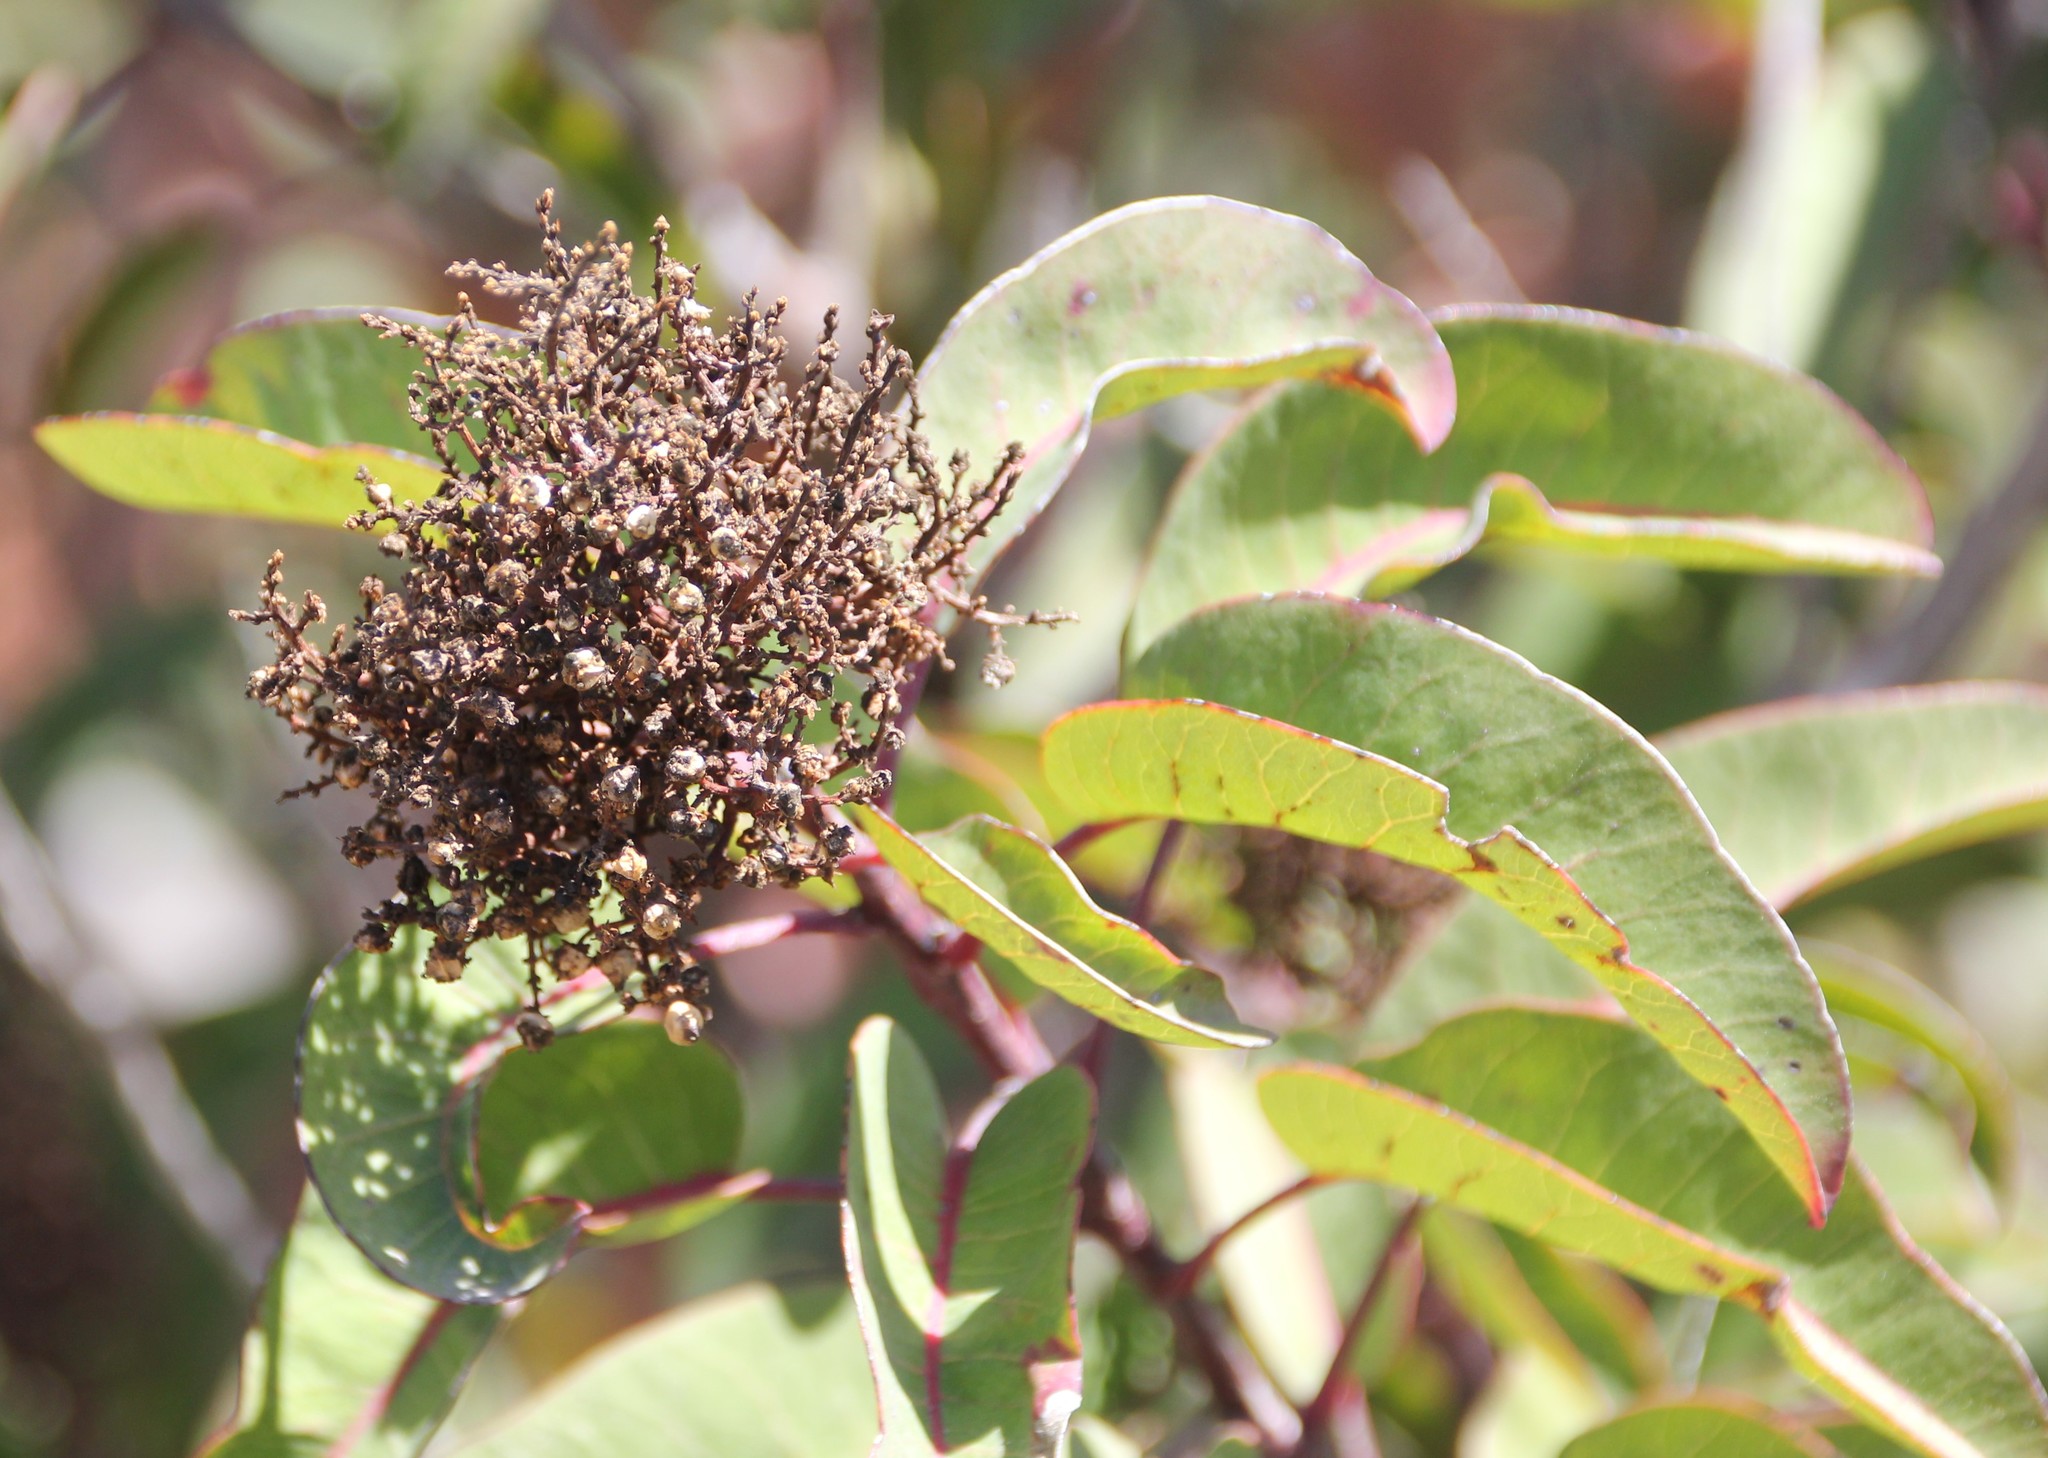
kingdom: Plantae
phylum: Tracheophyta
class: Magnoliopsida
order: Sapindales
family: Anacardiaceae
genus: Malosma
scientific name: Malosma laurina
